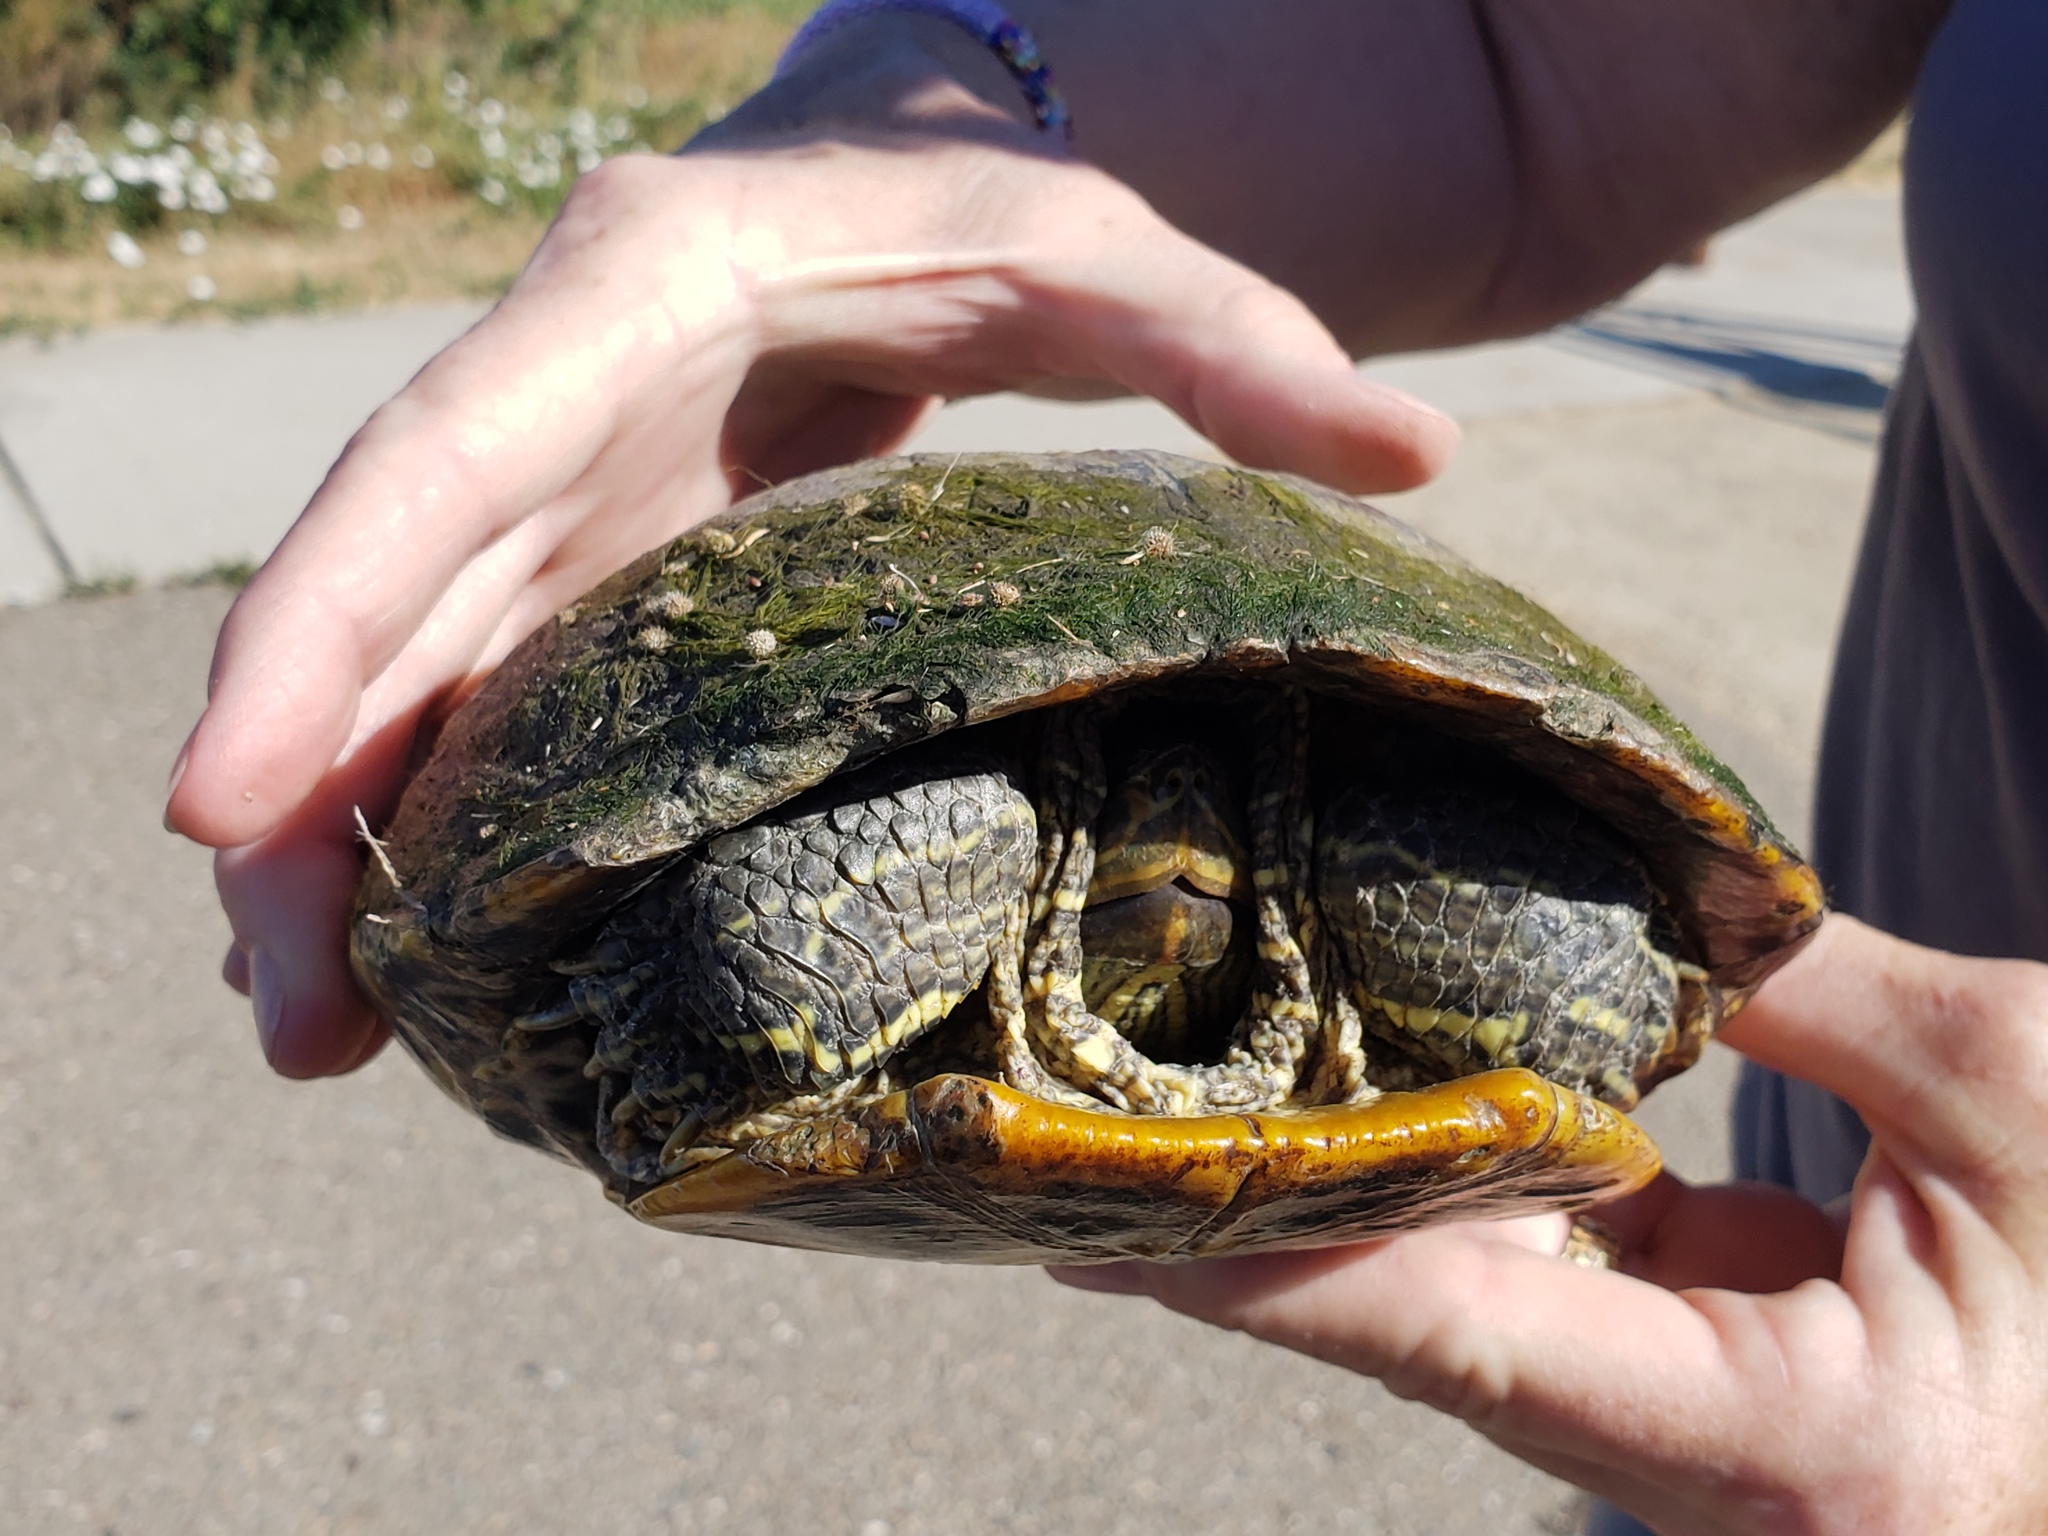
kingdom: Animalia
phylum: Chordata
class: Testudines
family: Emydidae
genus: Trachemys
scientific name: Trachemys scripta
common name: Slider
